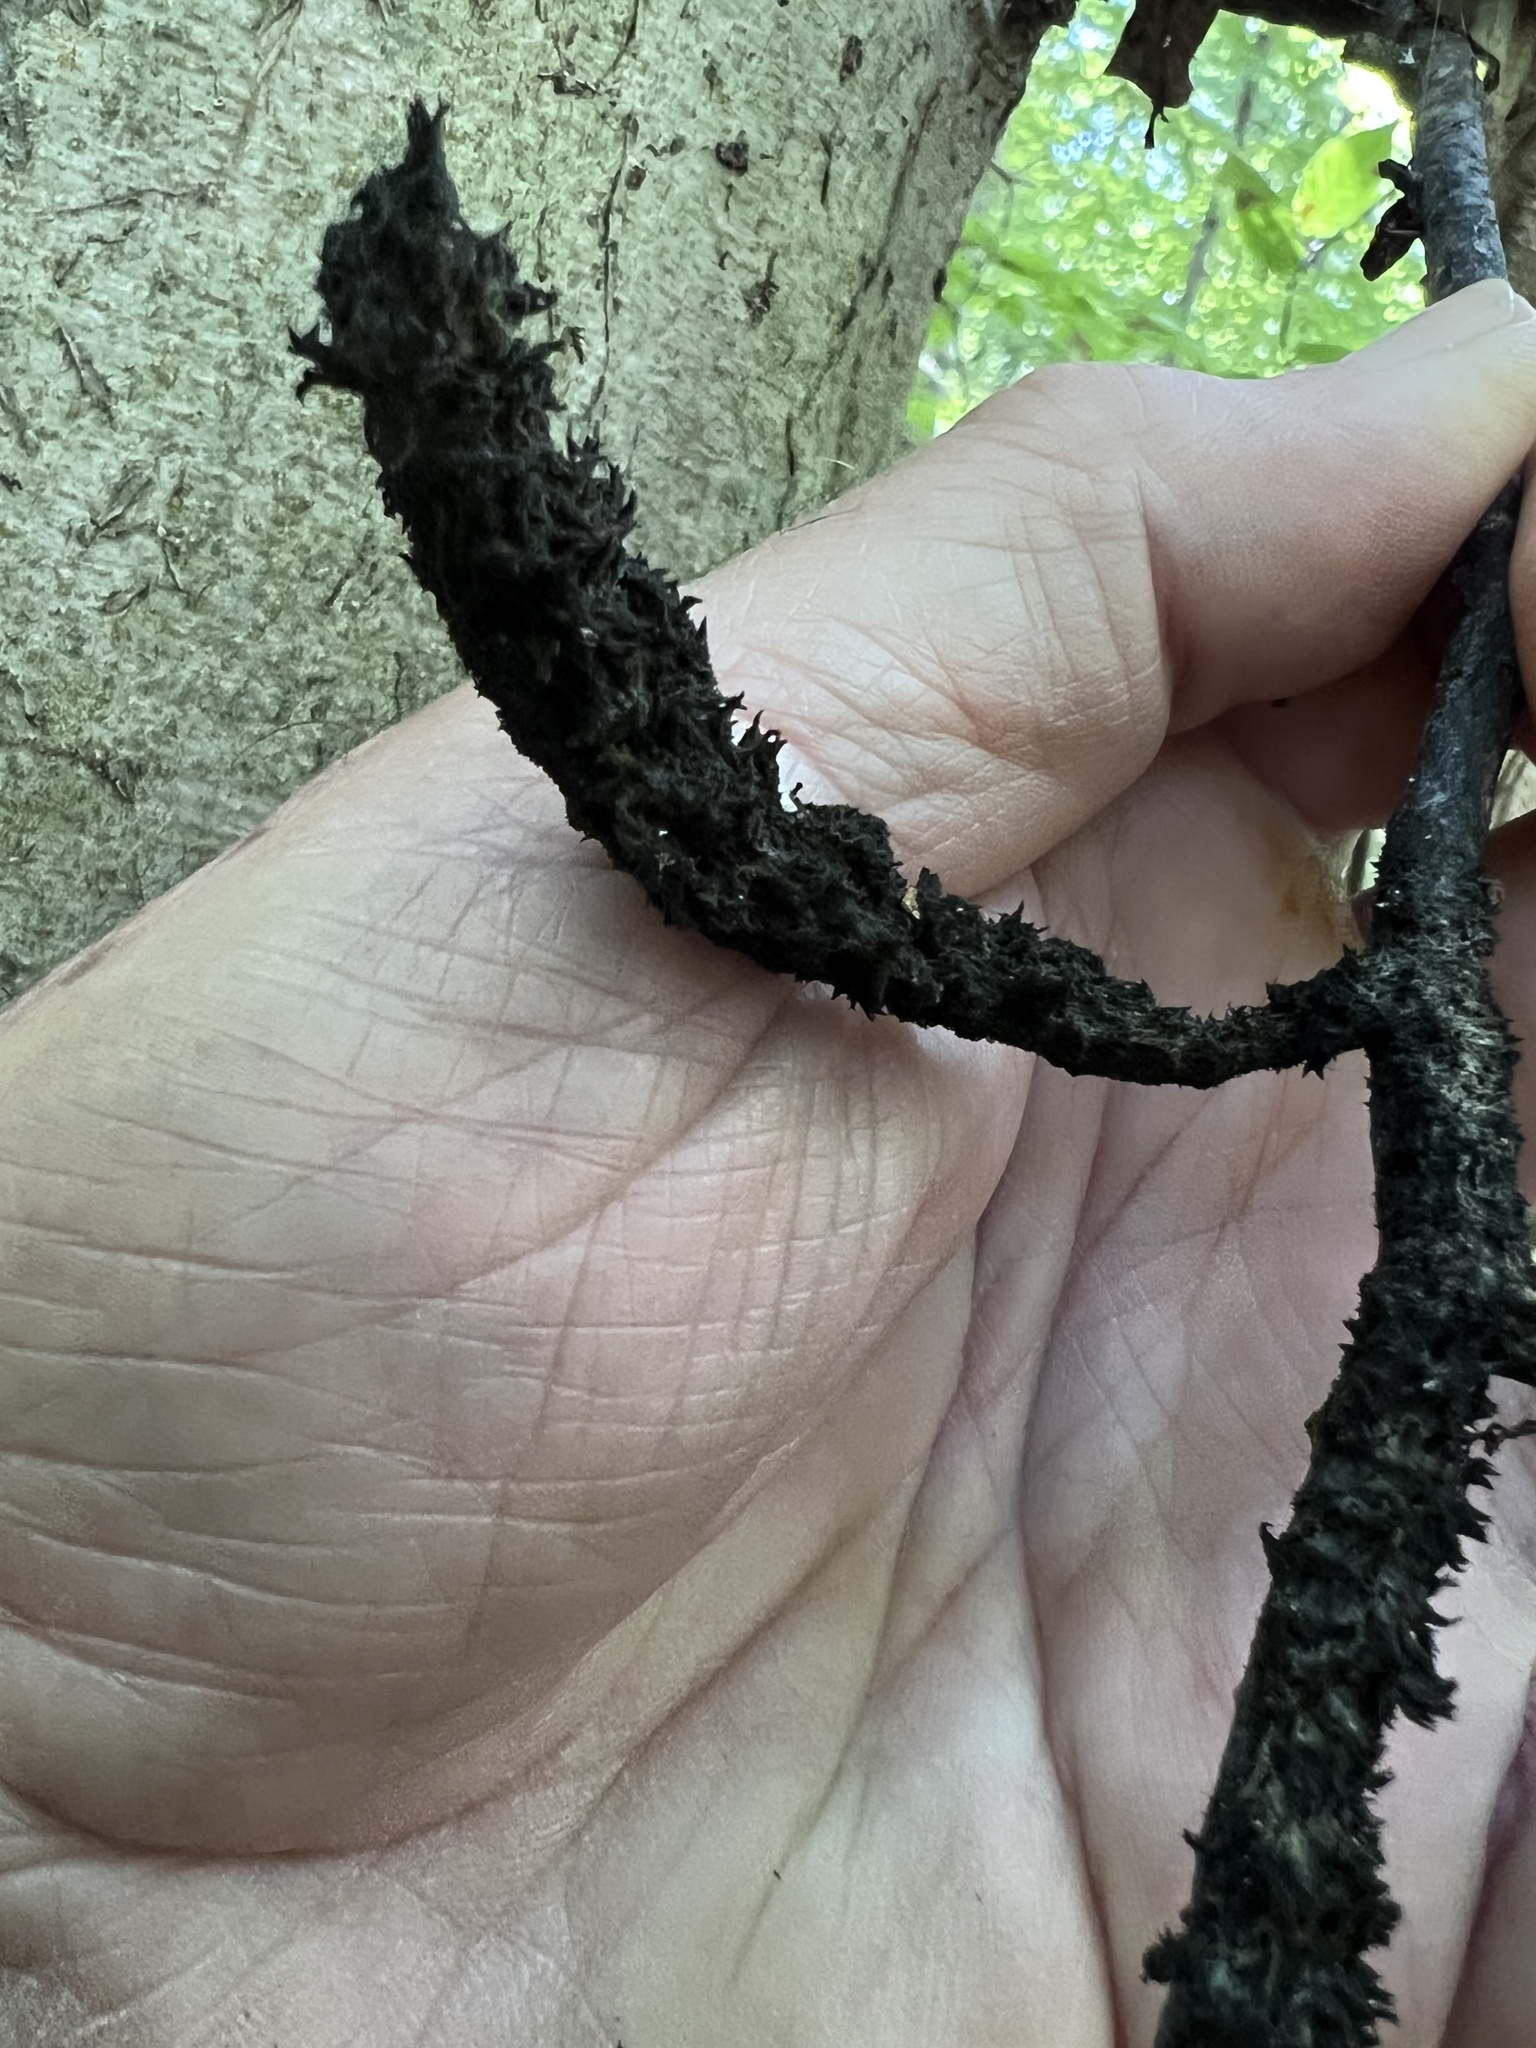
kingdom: Fungi
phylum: Ascomycota
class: Dothideomycetes
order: Capnodiales
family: Capnodiaceae
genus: Scorias
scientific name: Scorias spongiosa
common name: Black sooty mold
